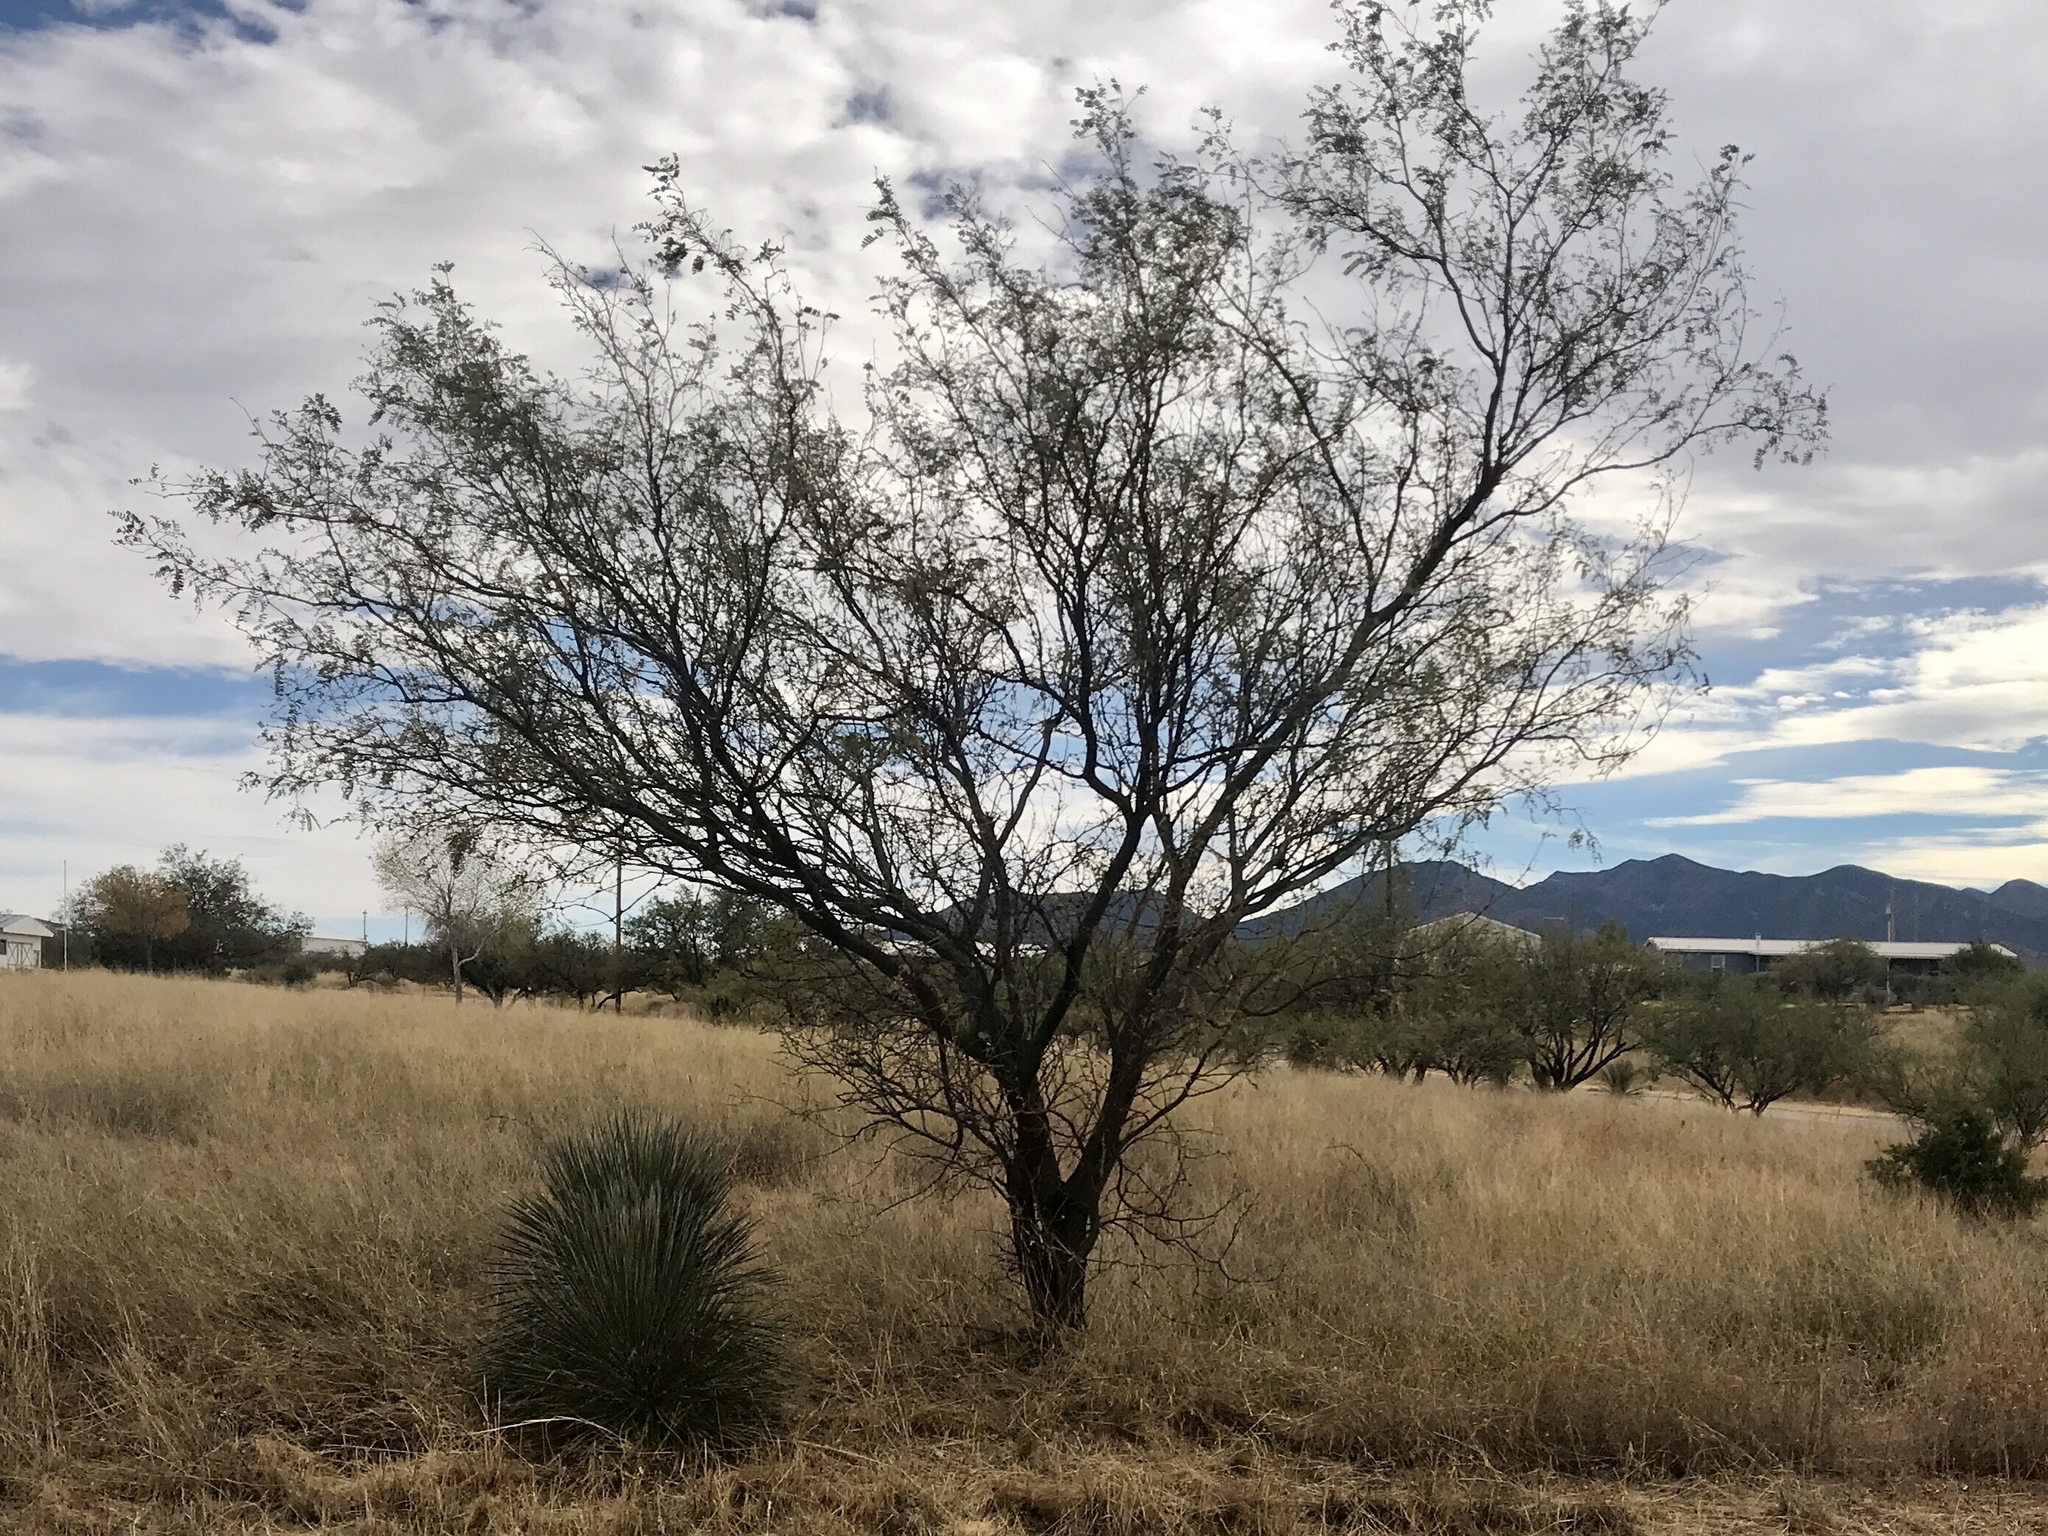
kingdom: Plantae
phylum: Tracheophyta
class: Magnoliopsida
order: Fabales
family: Fabaceae
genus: Prosopis
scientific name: Prosopis glandulosa
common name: Honey mesquite
